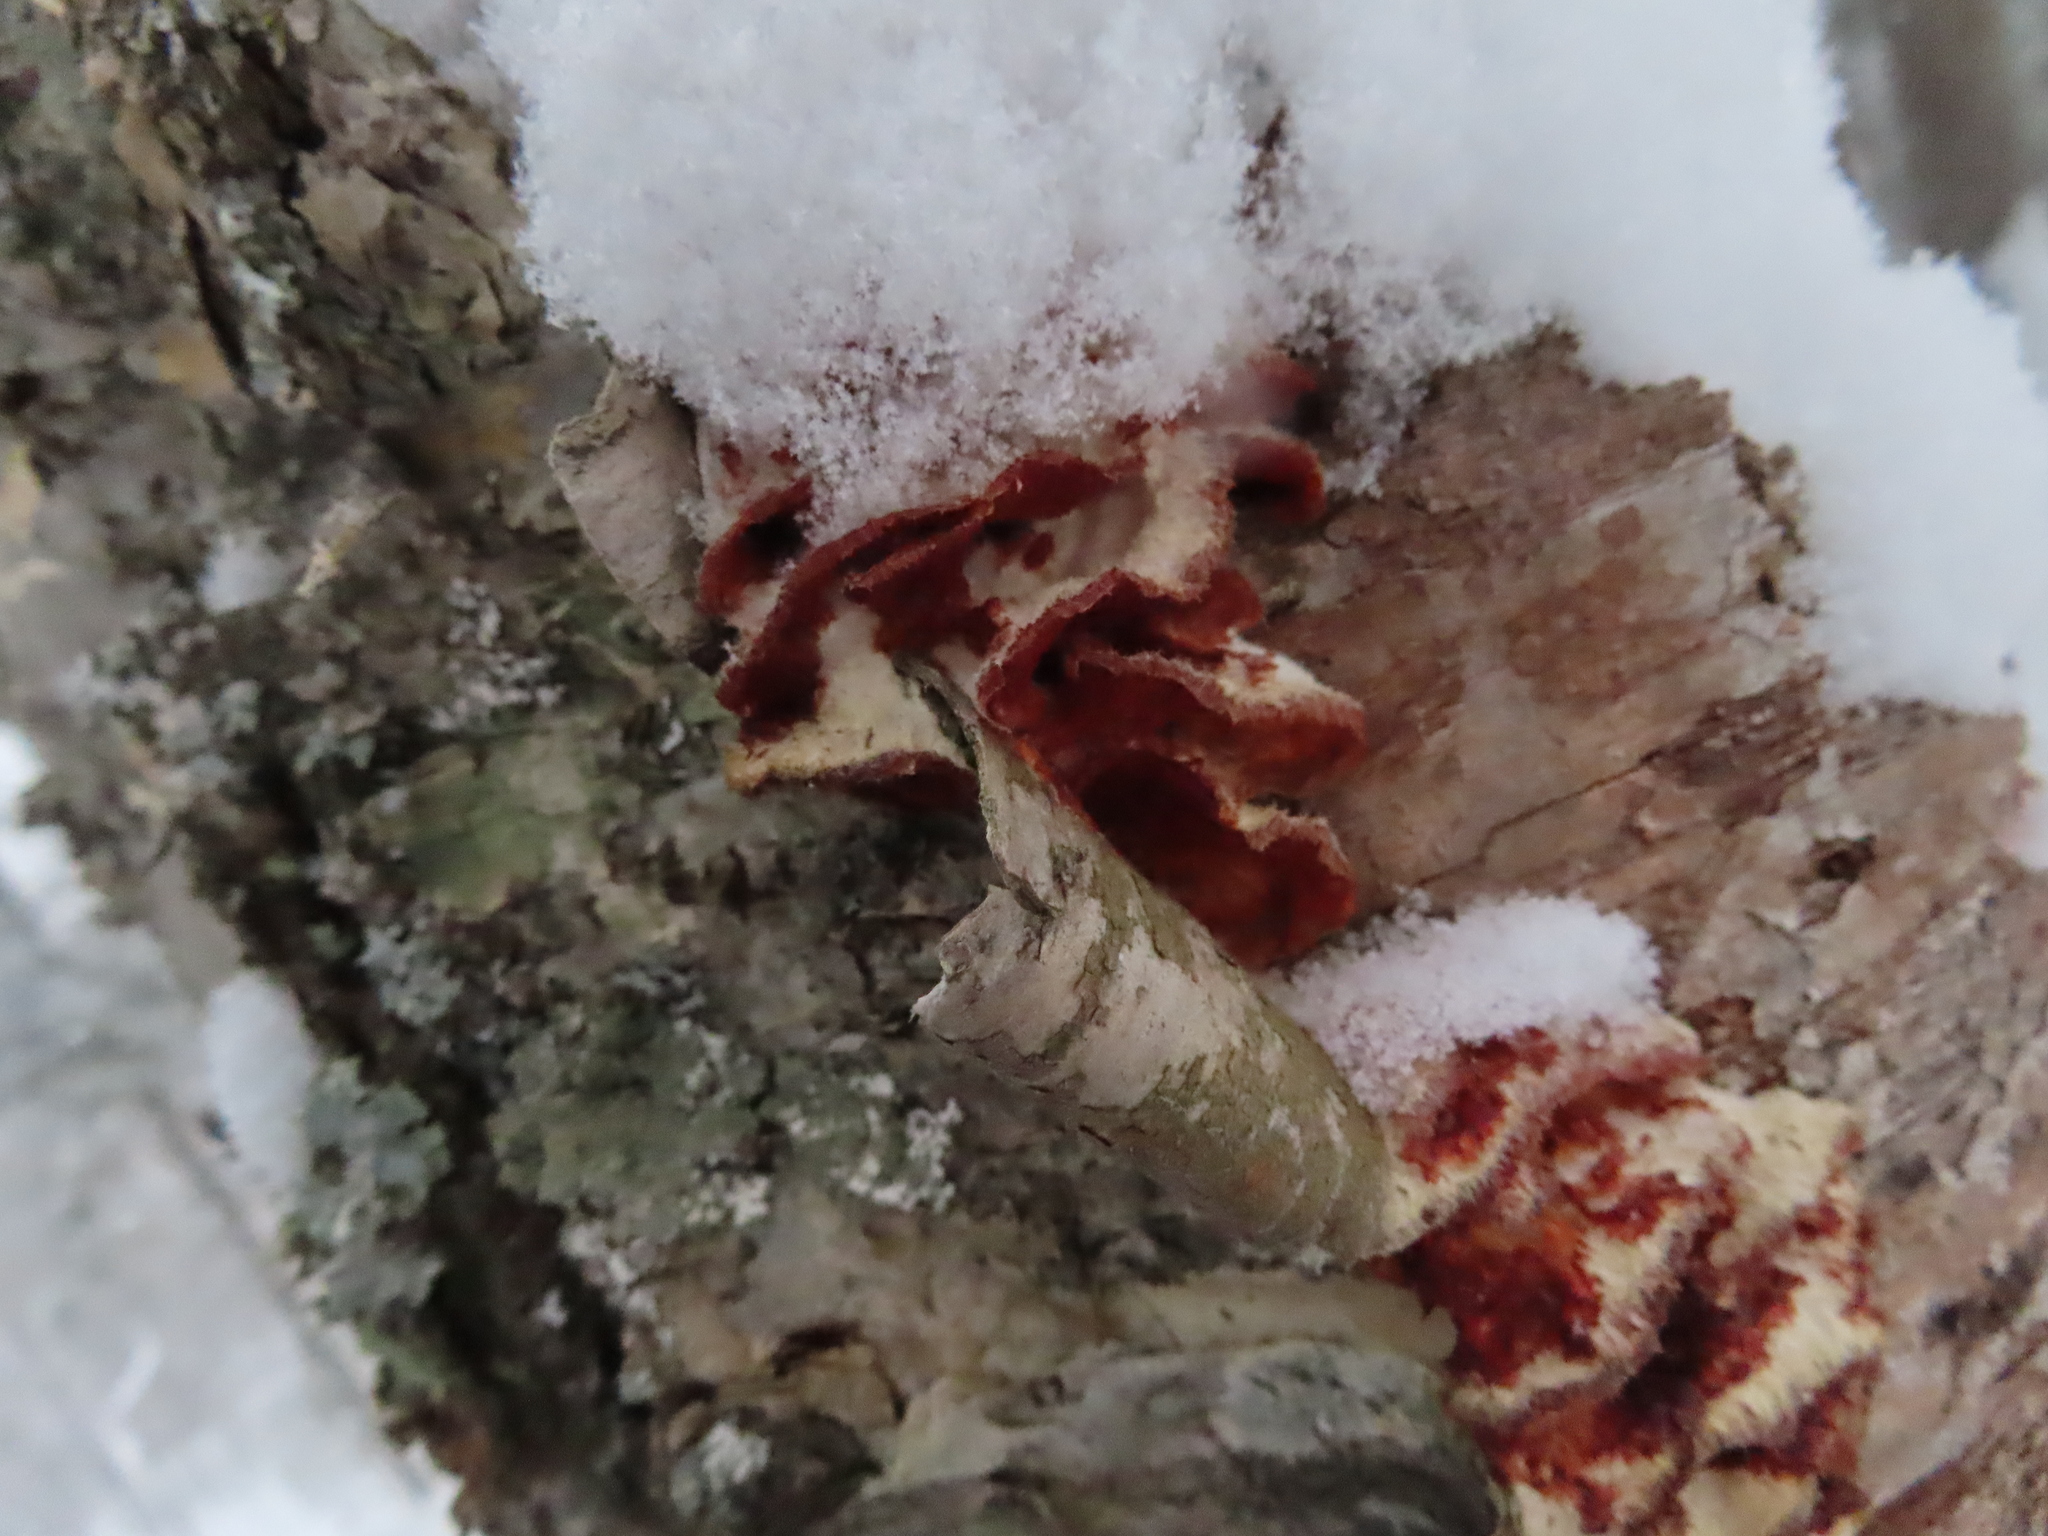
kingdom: Fungi
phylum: Basidiomycota
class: Agaricomycetes
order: Polyporales
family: Meruliaceae
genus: Phlebia
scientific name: Phlebia tremellosa
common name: Jelly rot
